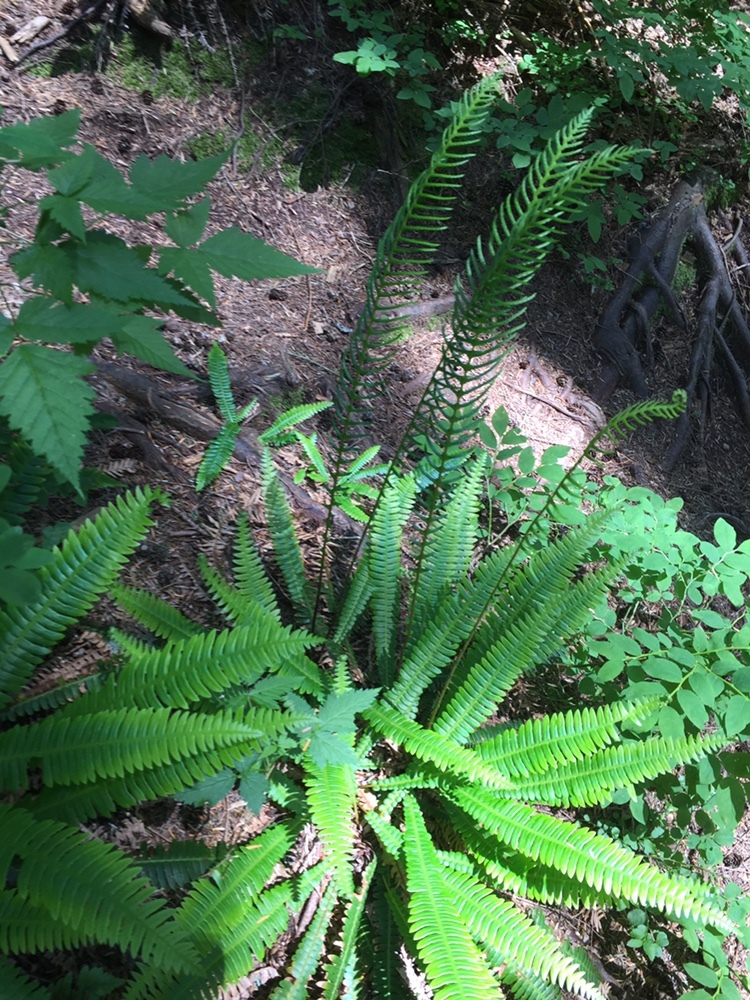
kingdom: Plantae
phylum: Tracheophyta
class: Polypodiopsida
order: Polypodiales
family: Blechnaceae
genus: Struthiopteris
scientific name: Struthiopteris spicant
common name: Deer fern
